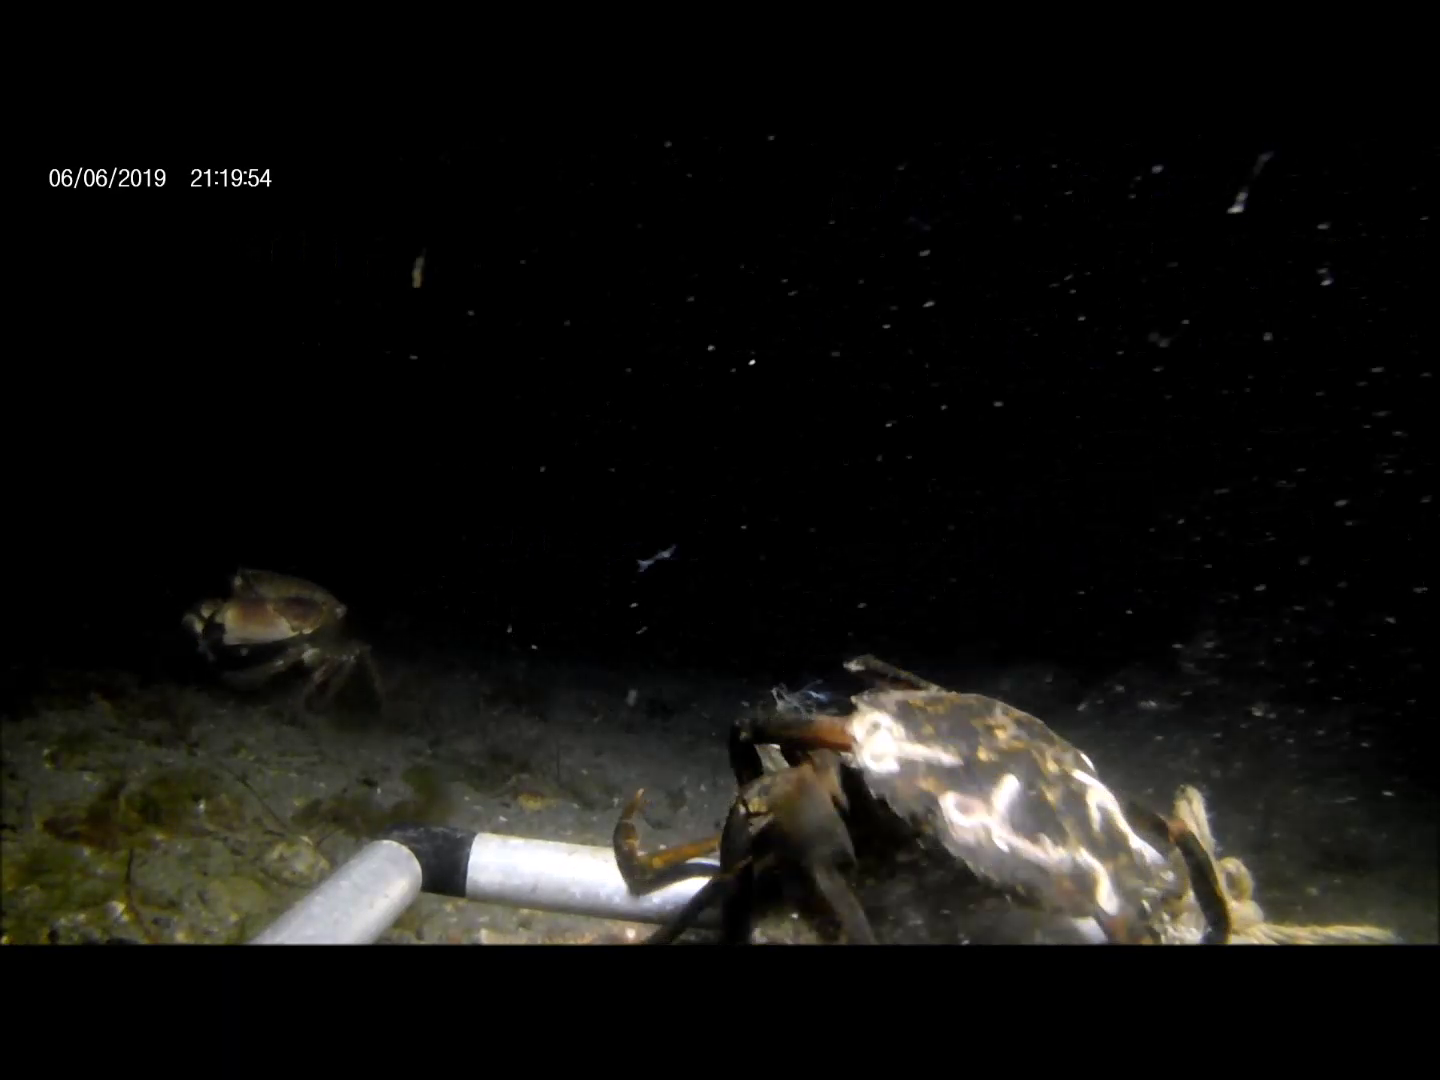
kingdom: Animalia
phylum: Arthropoda
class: Malacostraca
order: Decapoda
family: Carcinidae
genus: Carcinus
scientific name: Carcinus maenas
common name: European green crab
